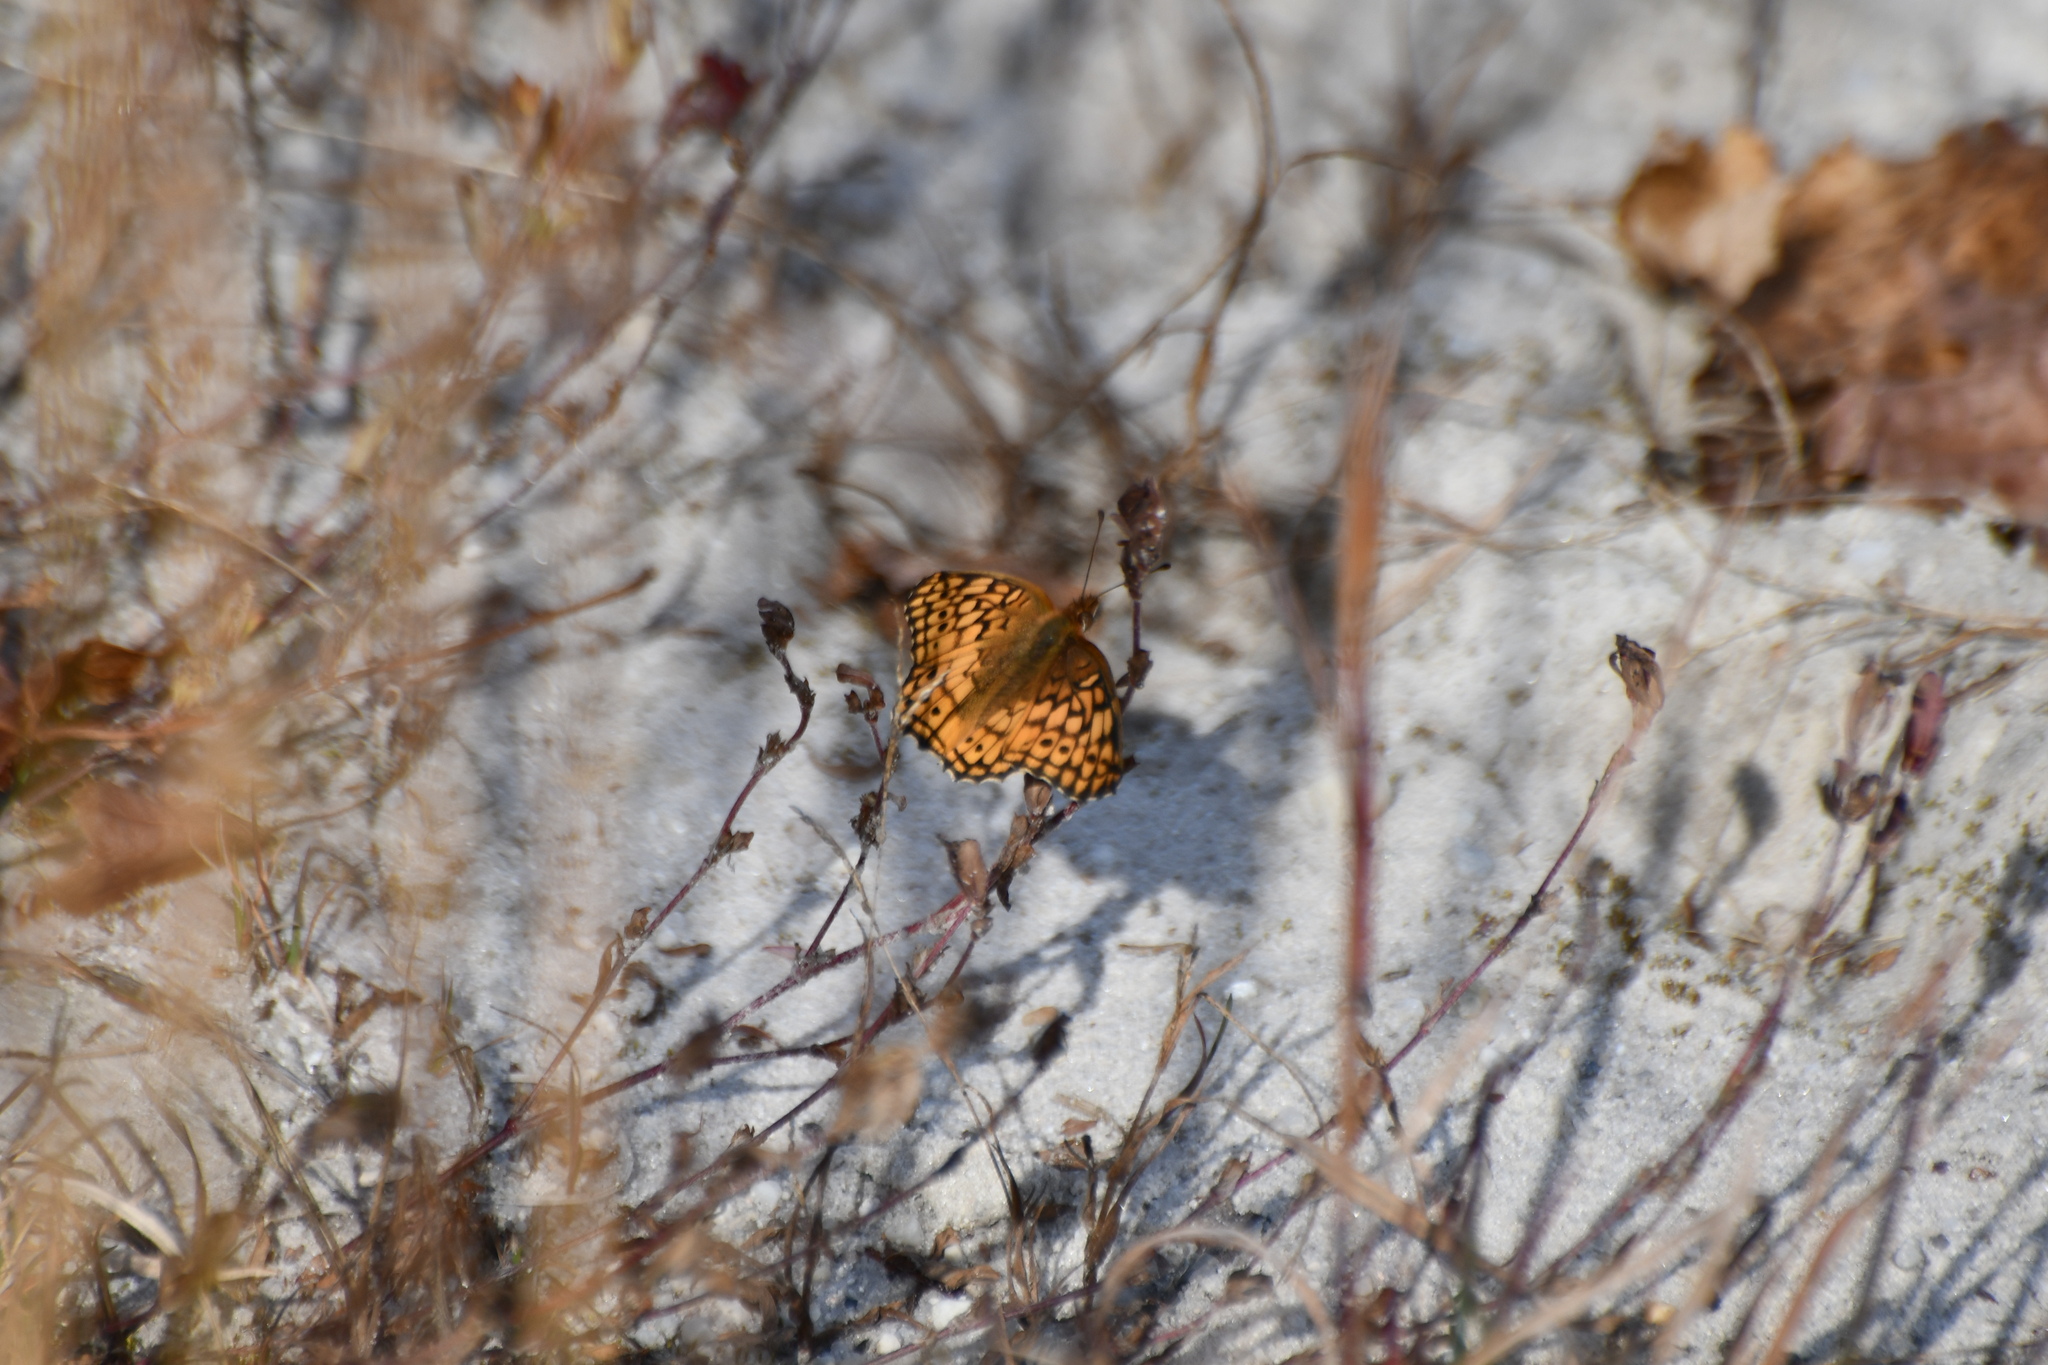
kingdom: Animalia
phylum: Arthropoda
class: Insecta
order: Lepidoptera
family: Nymphalidae
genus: Euptoieta
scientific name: Euptoieta claudia
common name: Variegated fritillary
